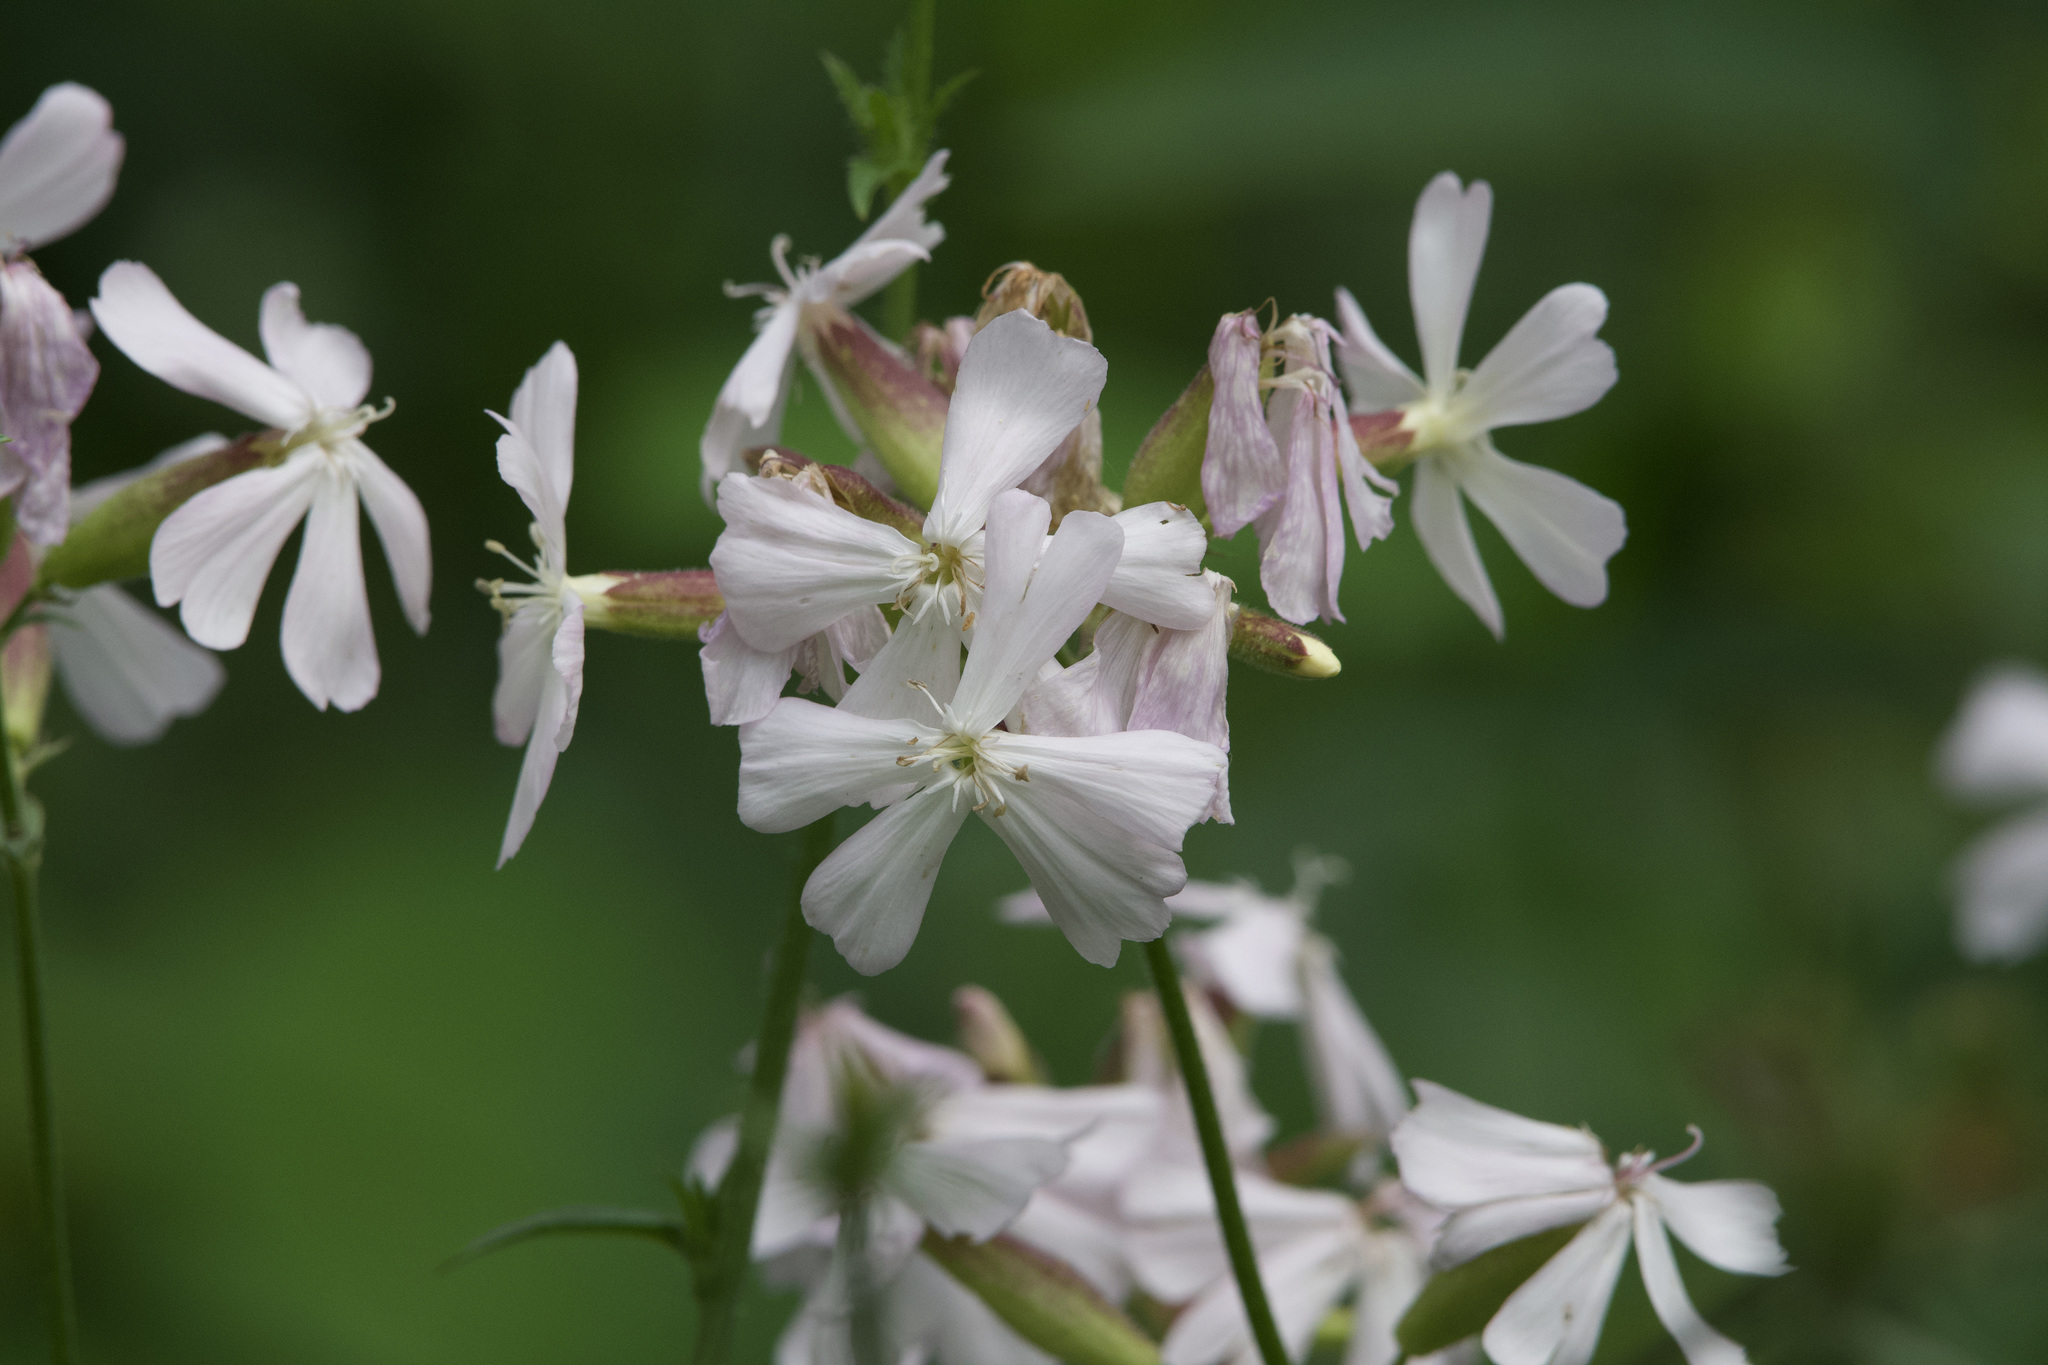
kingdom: Plantae
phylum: Tracheophyta
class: Magnoliopsida
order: Caryophyllales
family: Caryophyllaceae
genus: Saponaria
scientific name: Saponaria officinalis
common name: Soapwort
